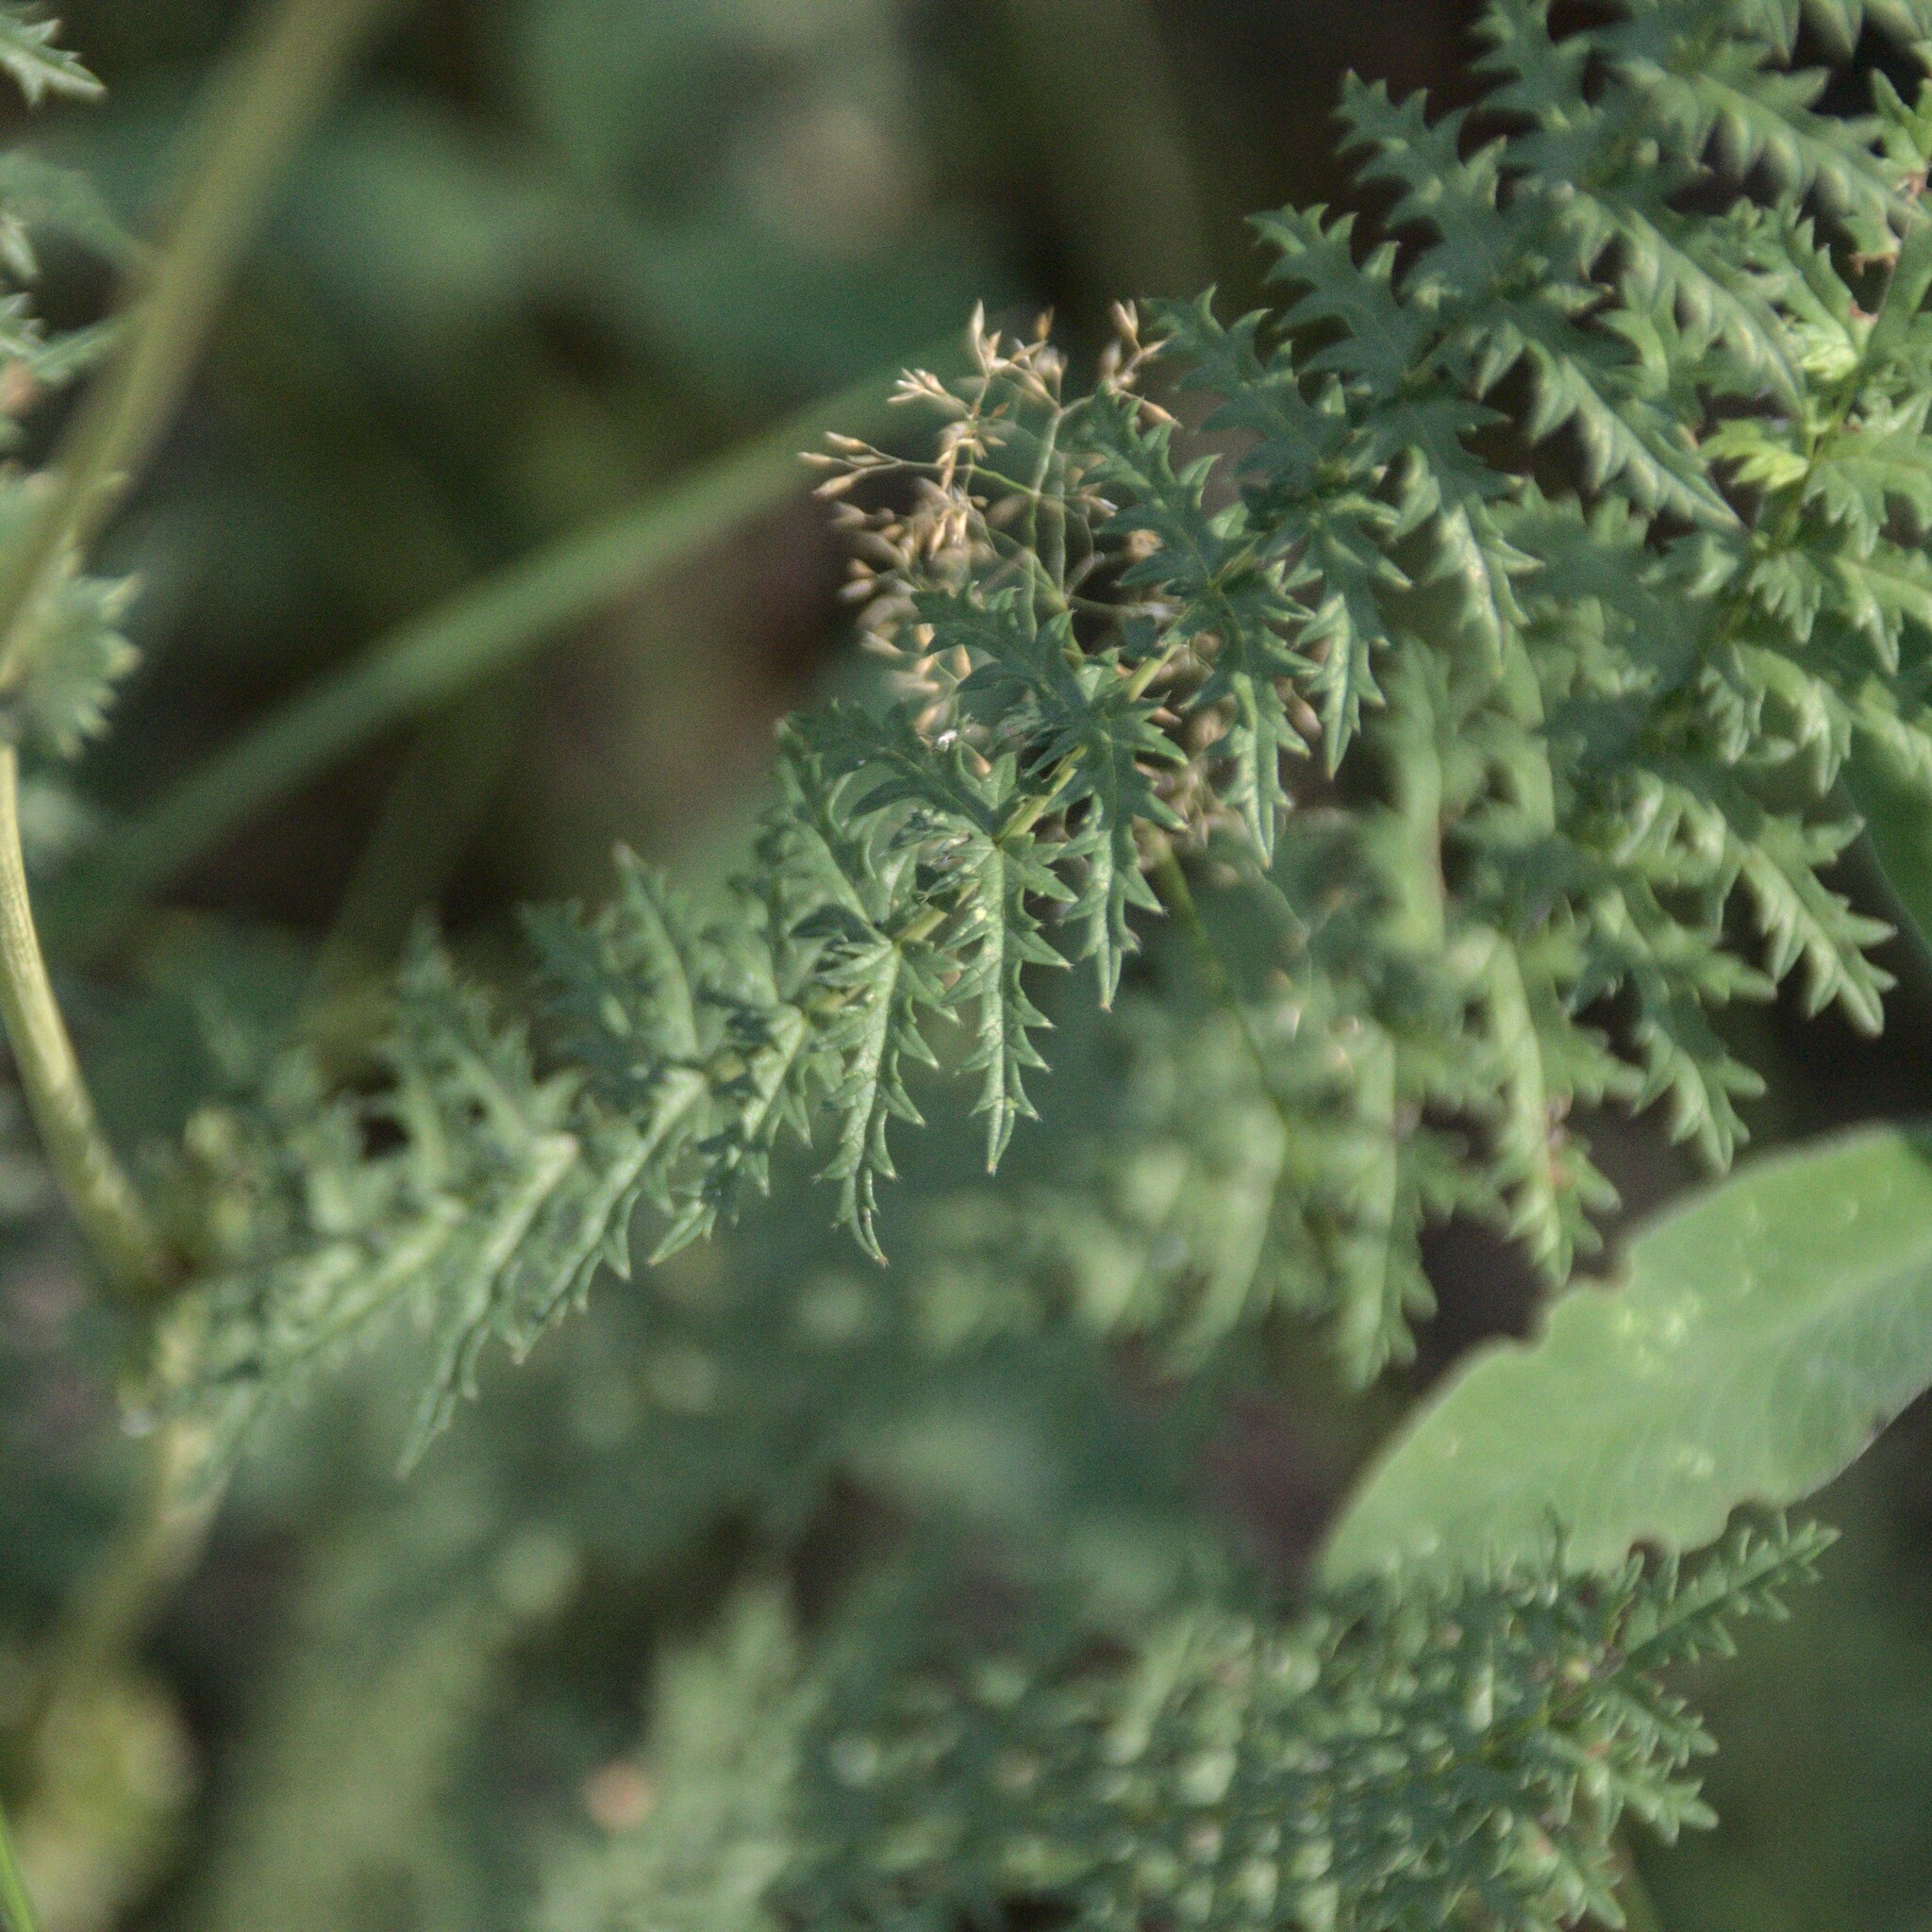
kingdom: Plantae
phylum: Tracheophyta
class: Magnoliopsida
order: Rosales
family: Rosaceae
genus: Filipendula
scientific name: Filipendula vulgaris
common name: Dropwort
